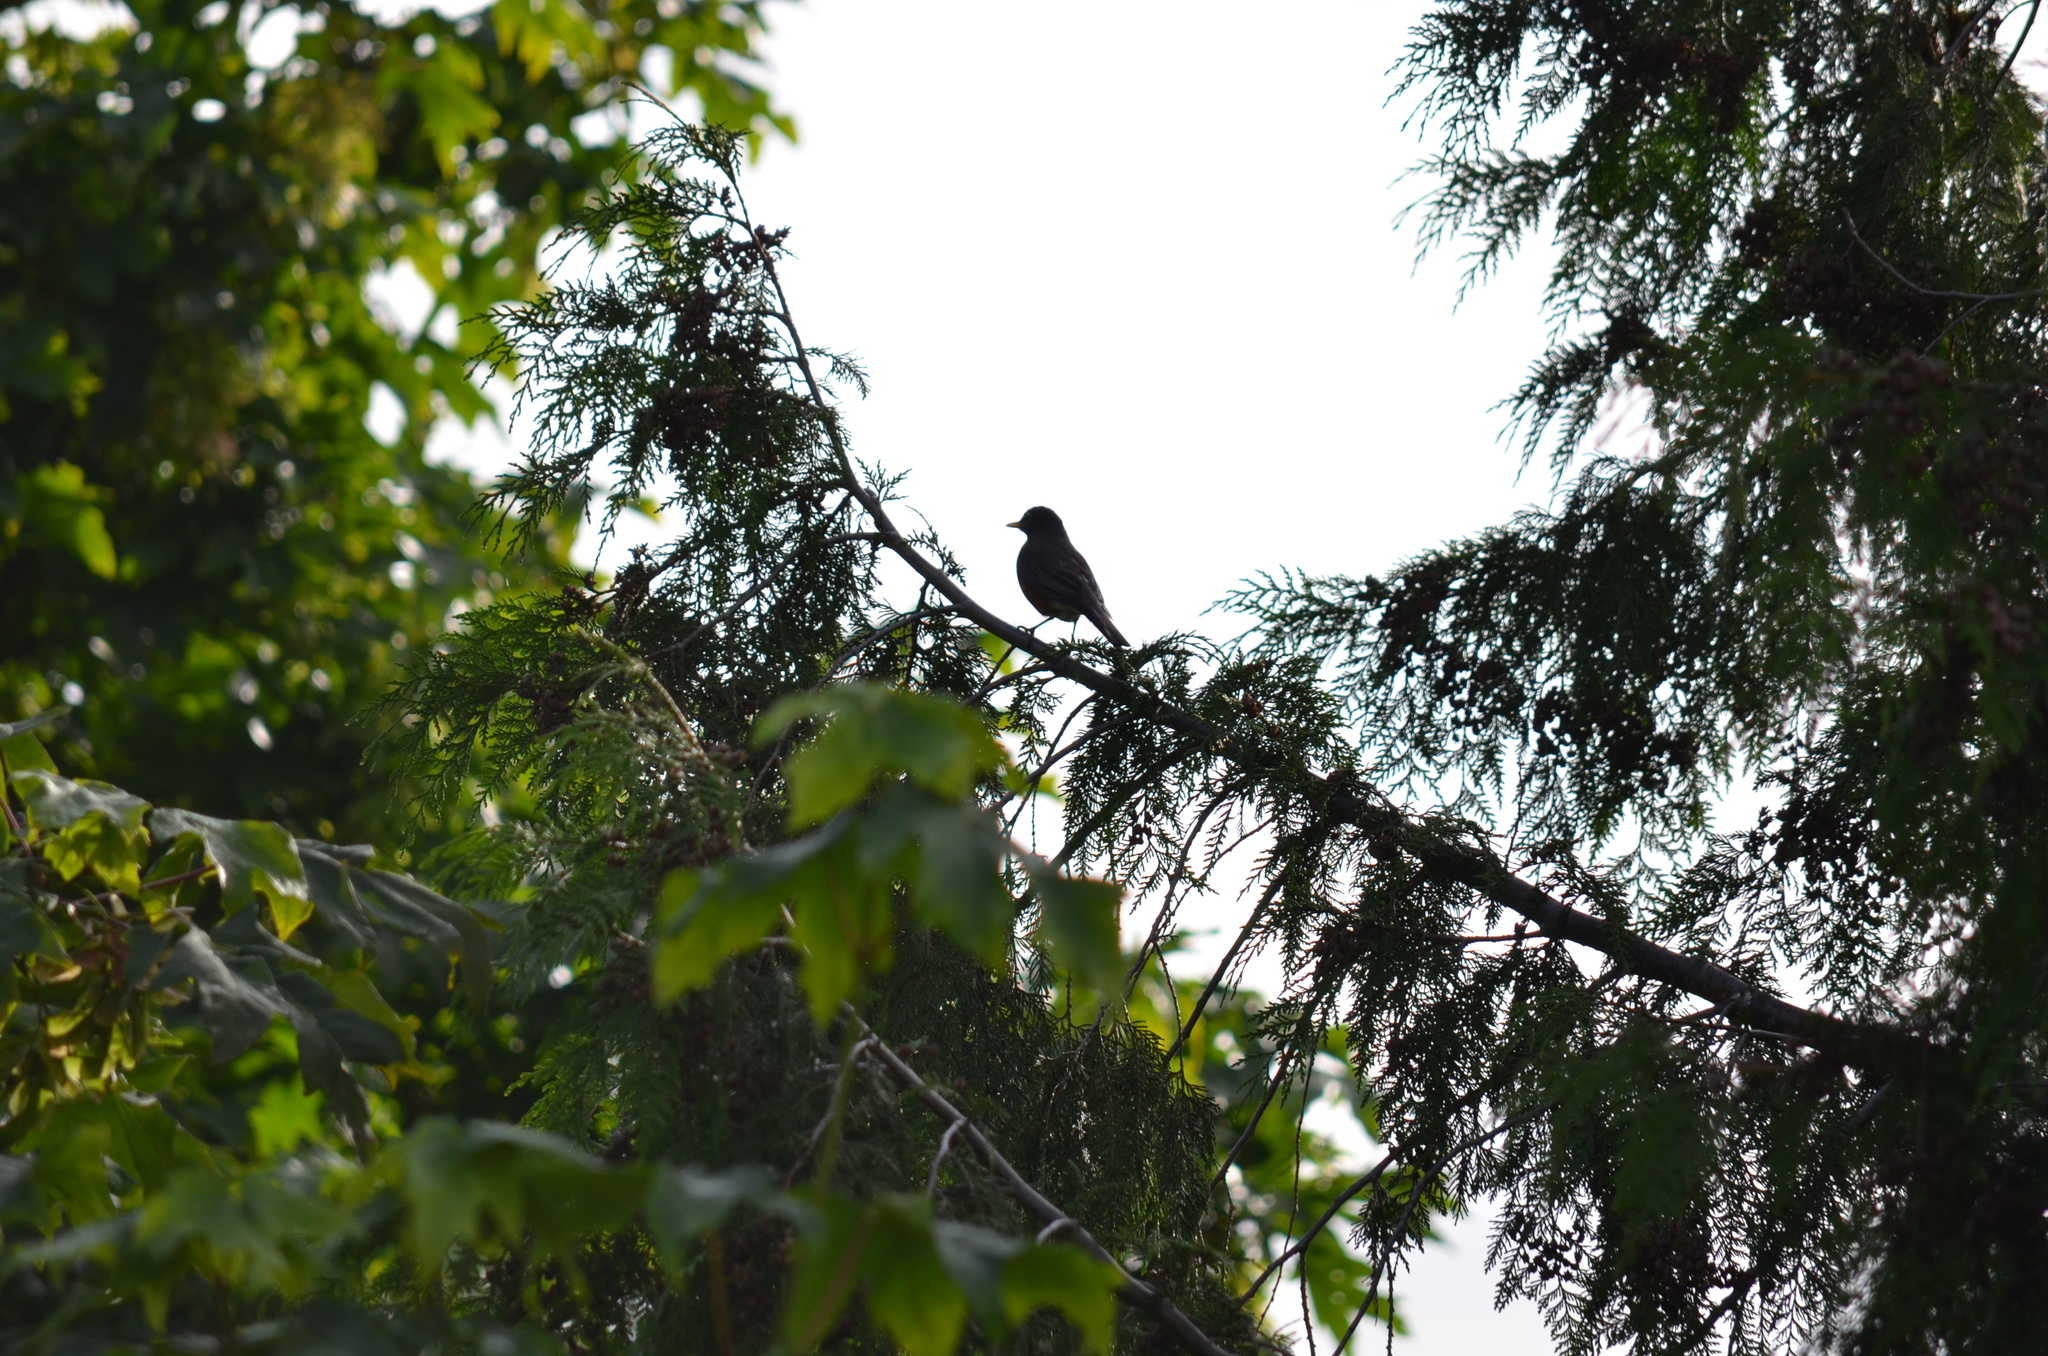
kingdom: Animalia
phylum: Chordata
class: Aves
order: Passeriformes
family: Turdidae
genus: Turdus
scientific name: Turdus migratorius
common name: American robin
